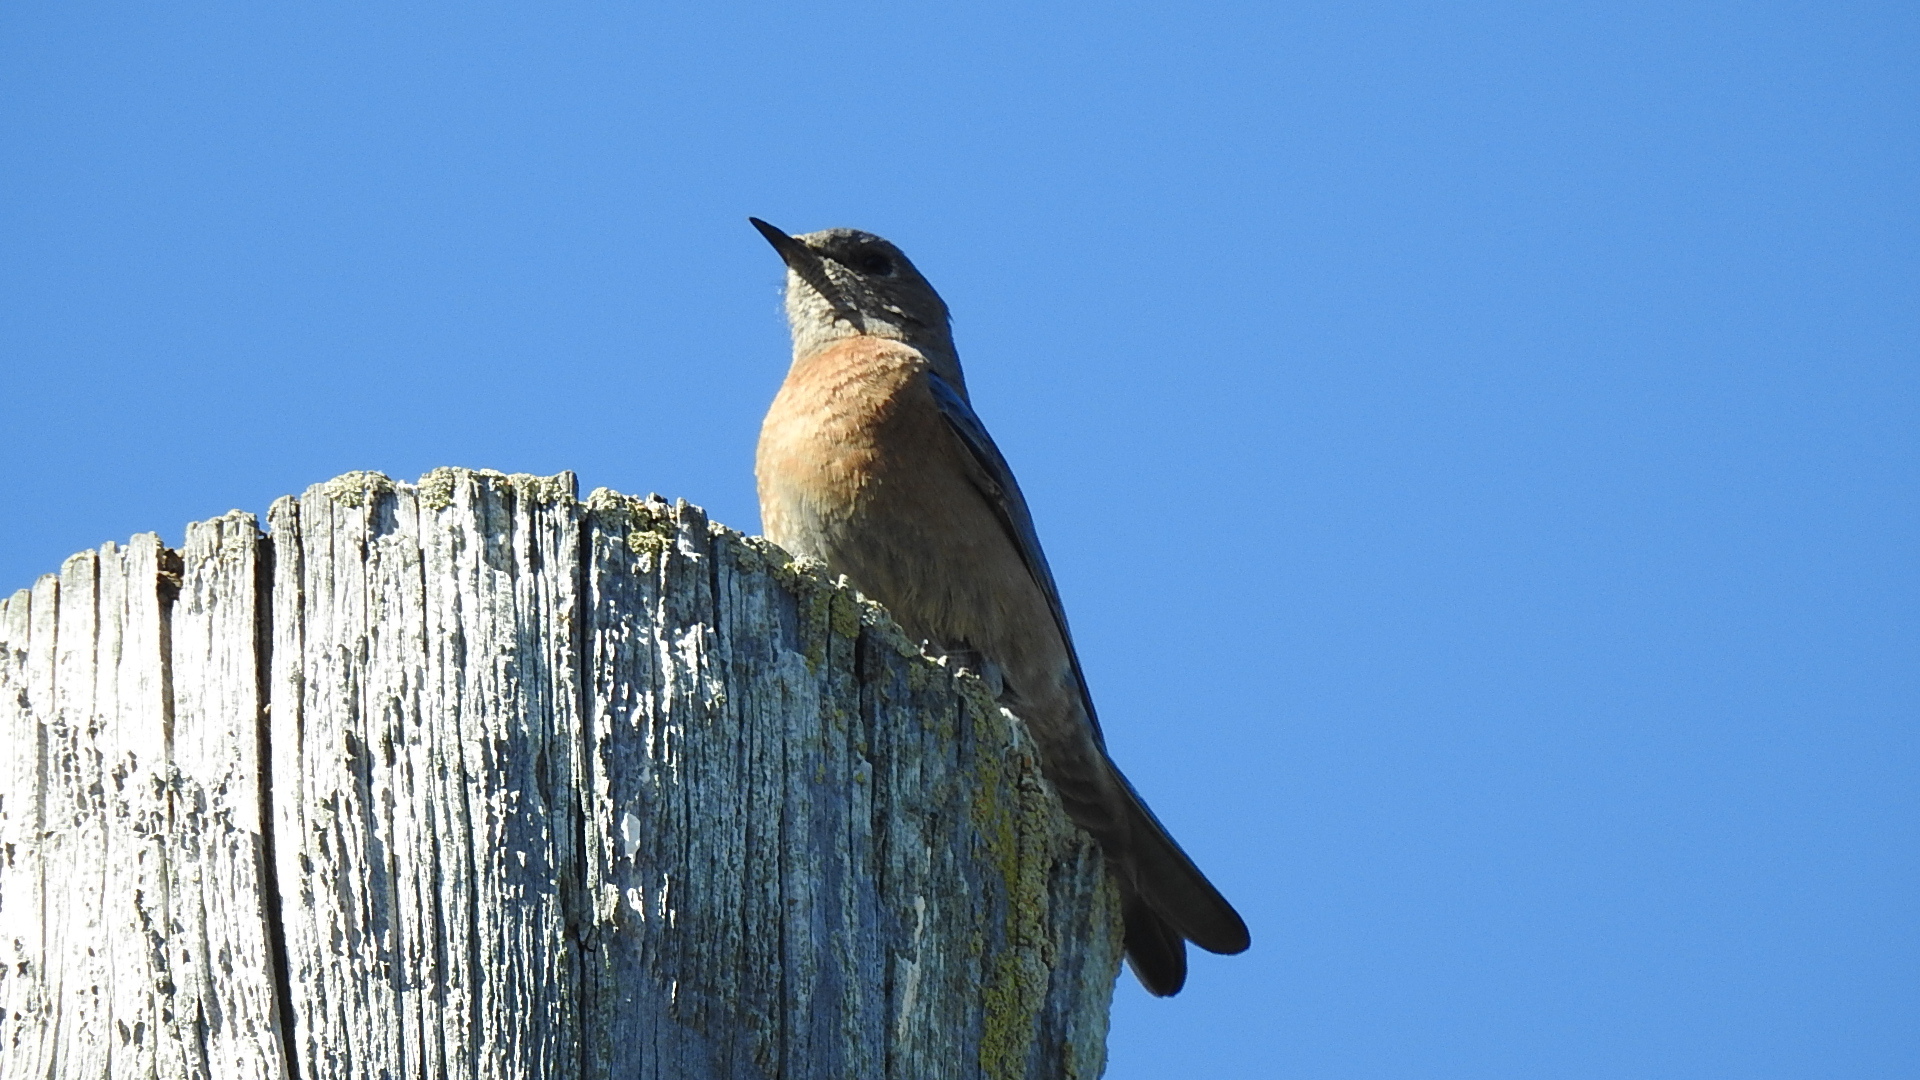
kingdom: Animalia
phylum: Chordata
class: Aves
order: Passeriformes
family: Turdidae
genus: Sialia
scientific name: Sialia mexicana
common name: Western bluebird
